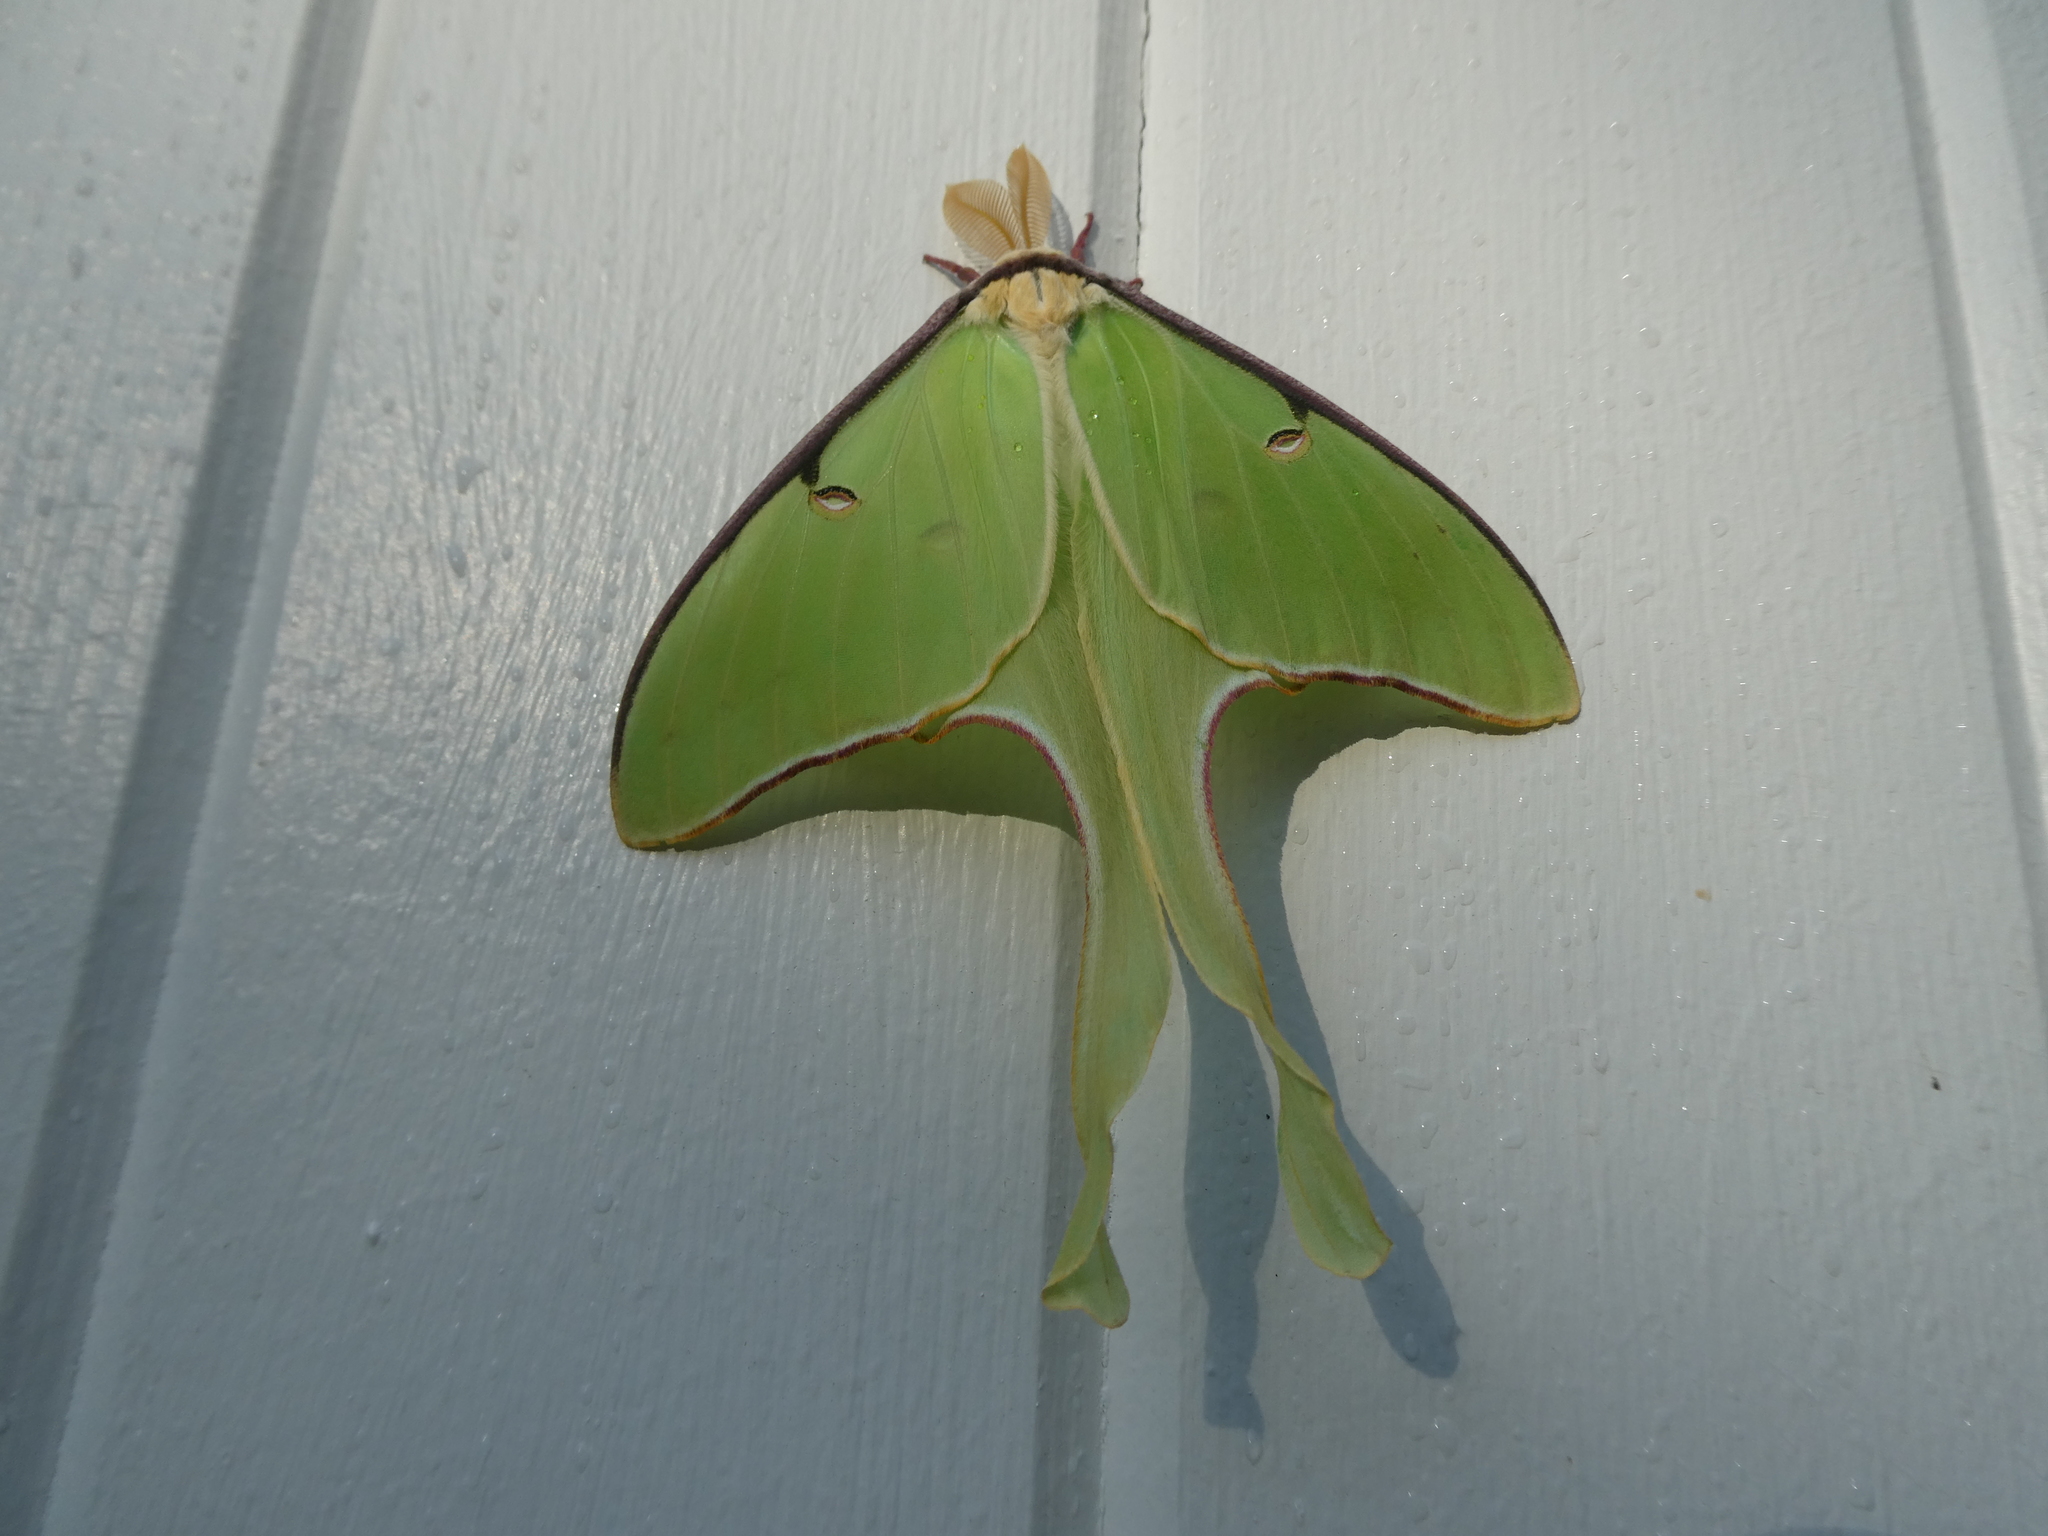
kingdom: Animalia
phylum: Arthropoda
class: Insecta
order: Lepidoptera
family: Saturniidae
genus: Actias
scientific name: Actias luna
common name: Luna moth
